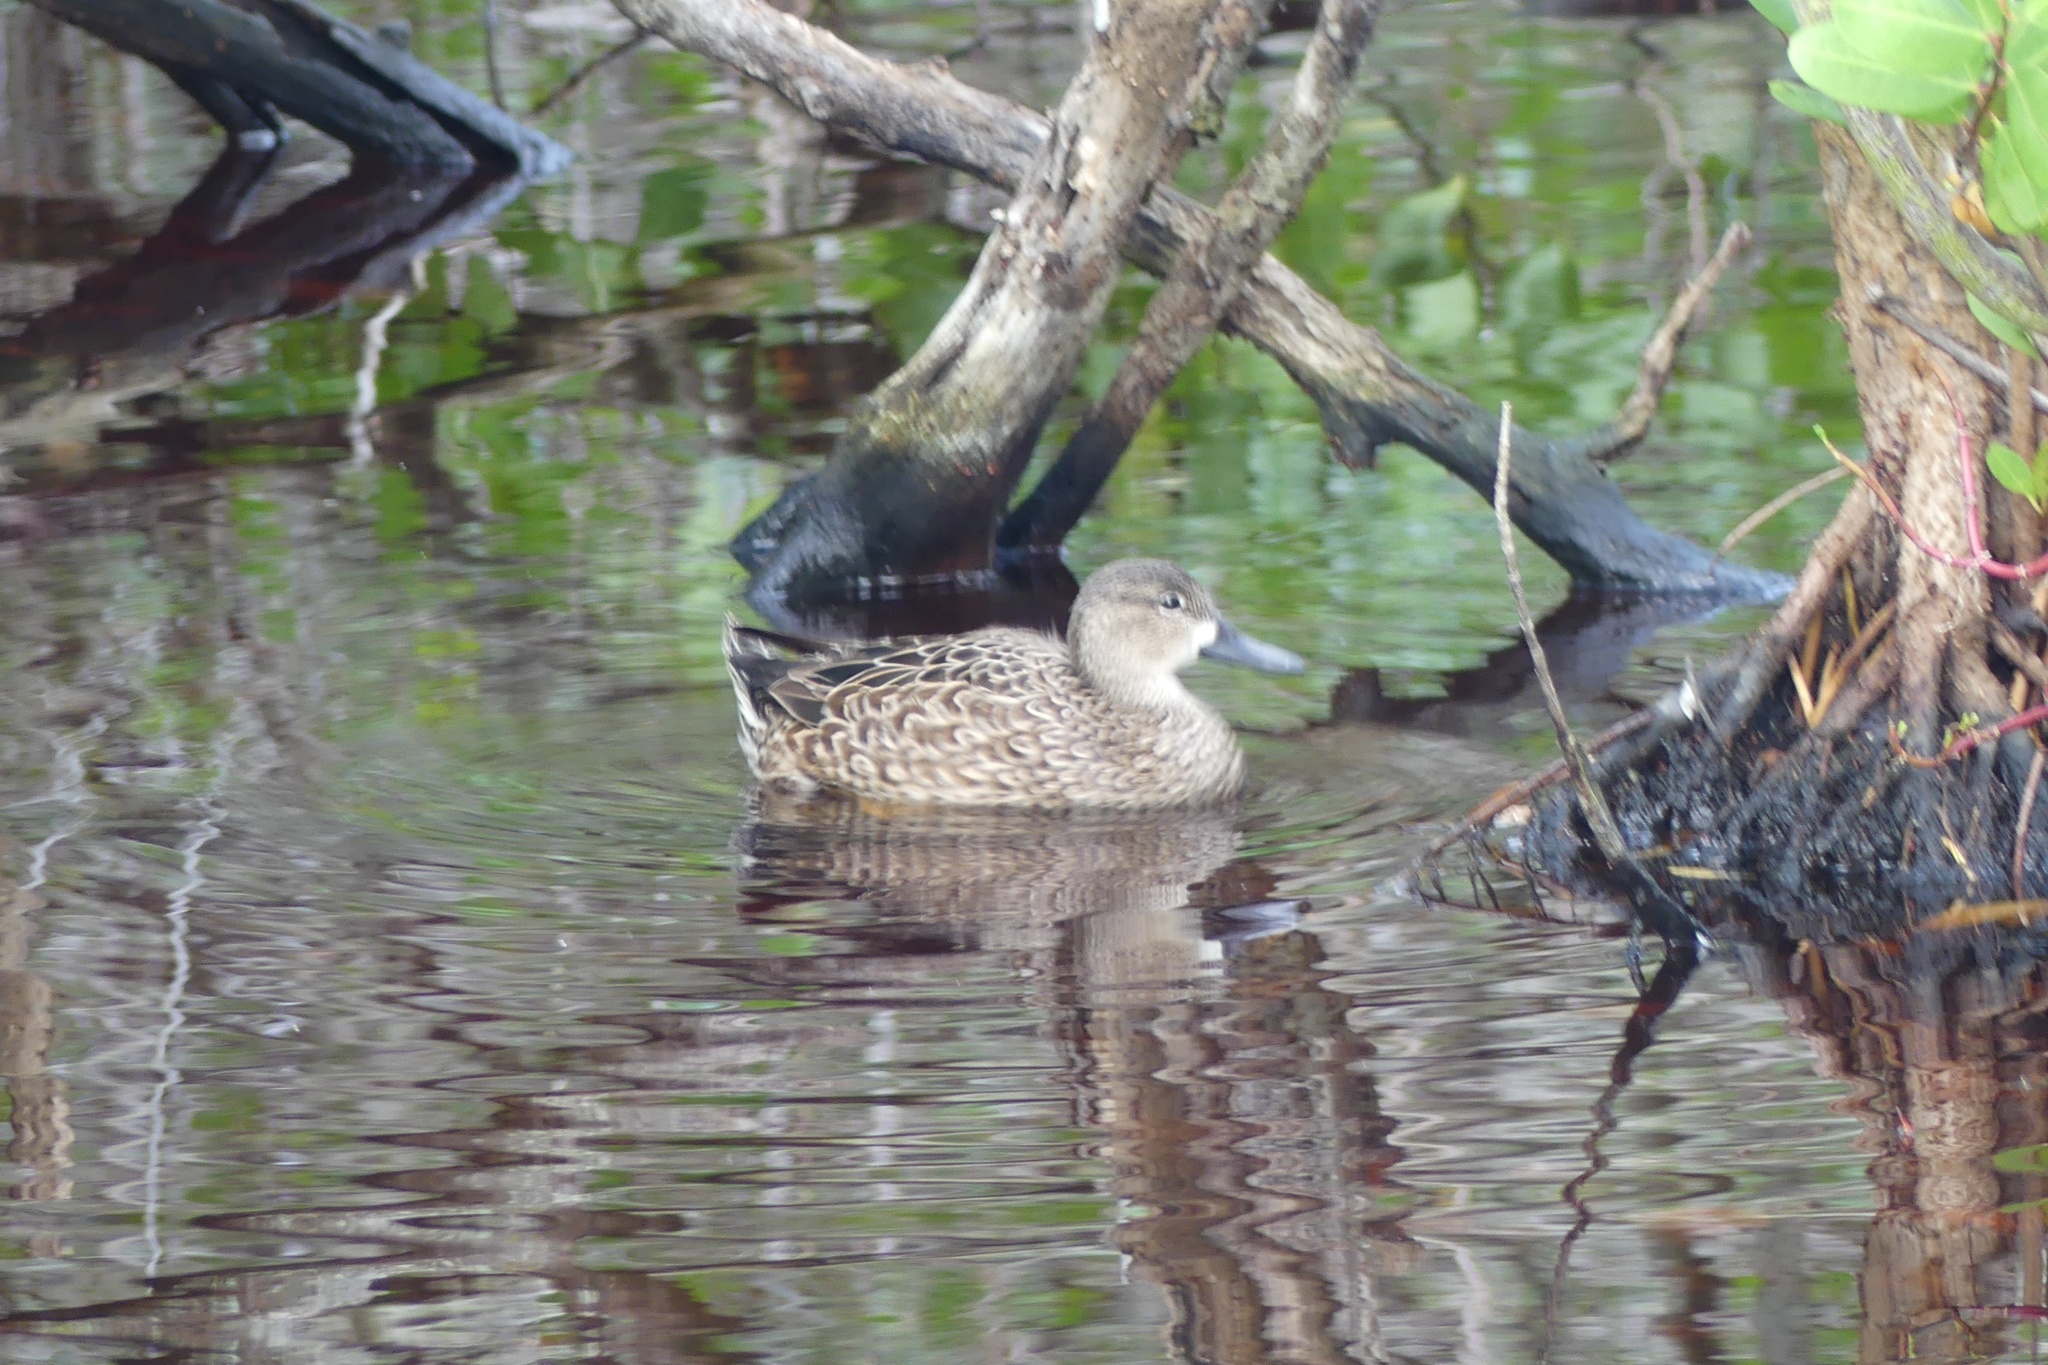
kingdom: Animalia
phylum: Chordata
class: Aves
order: Anseriformes
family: Anatidae
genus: Spatula
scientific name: Spatula discors
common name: Blue-winged teal
